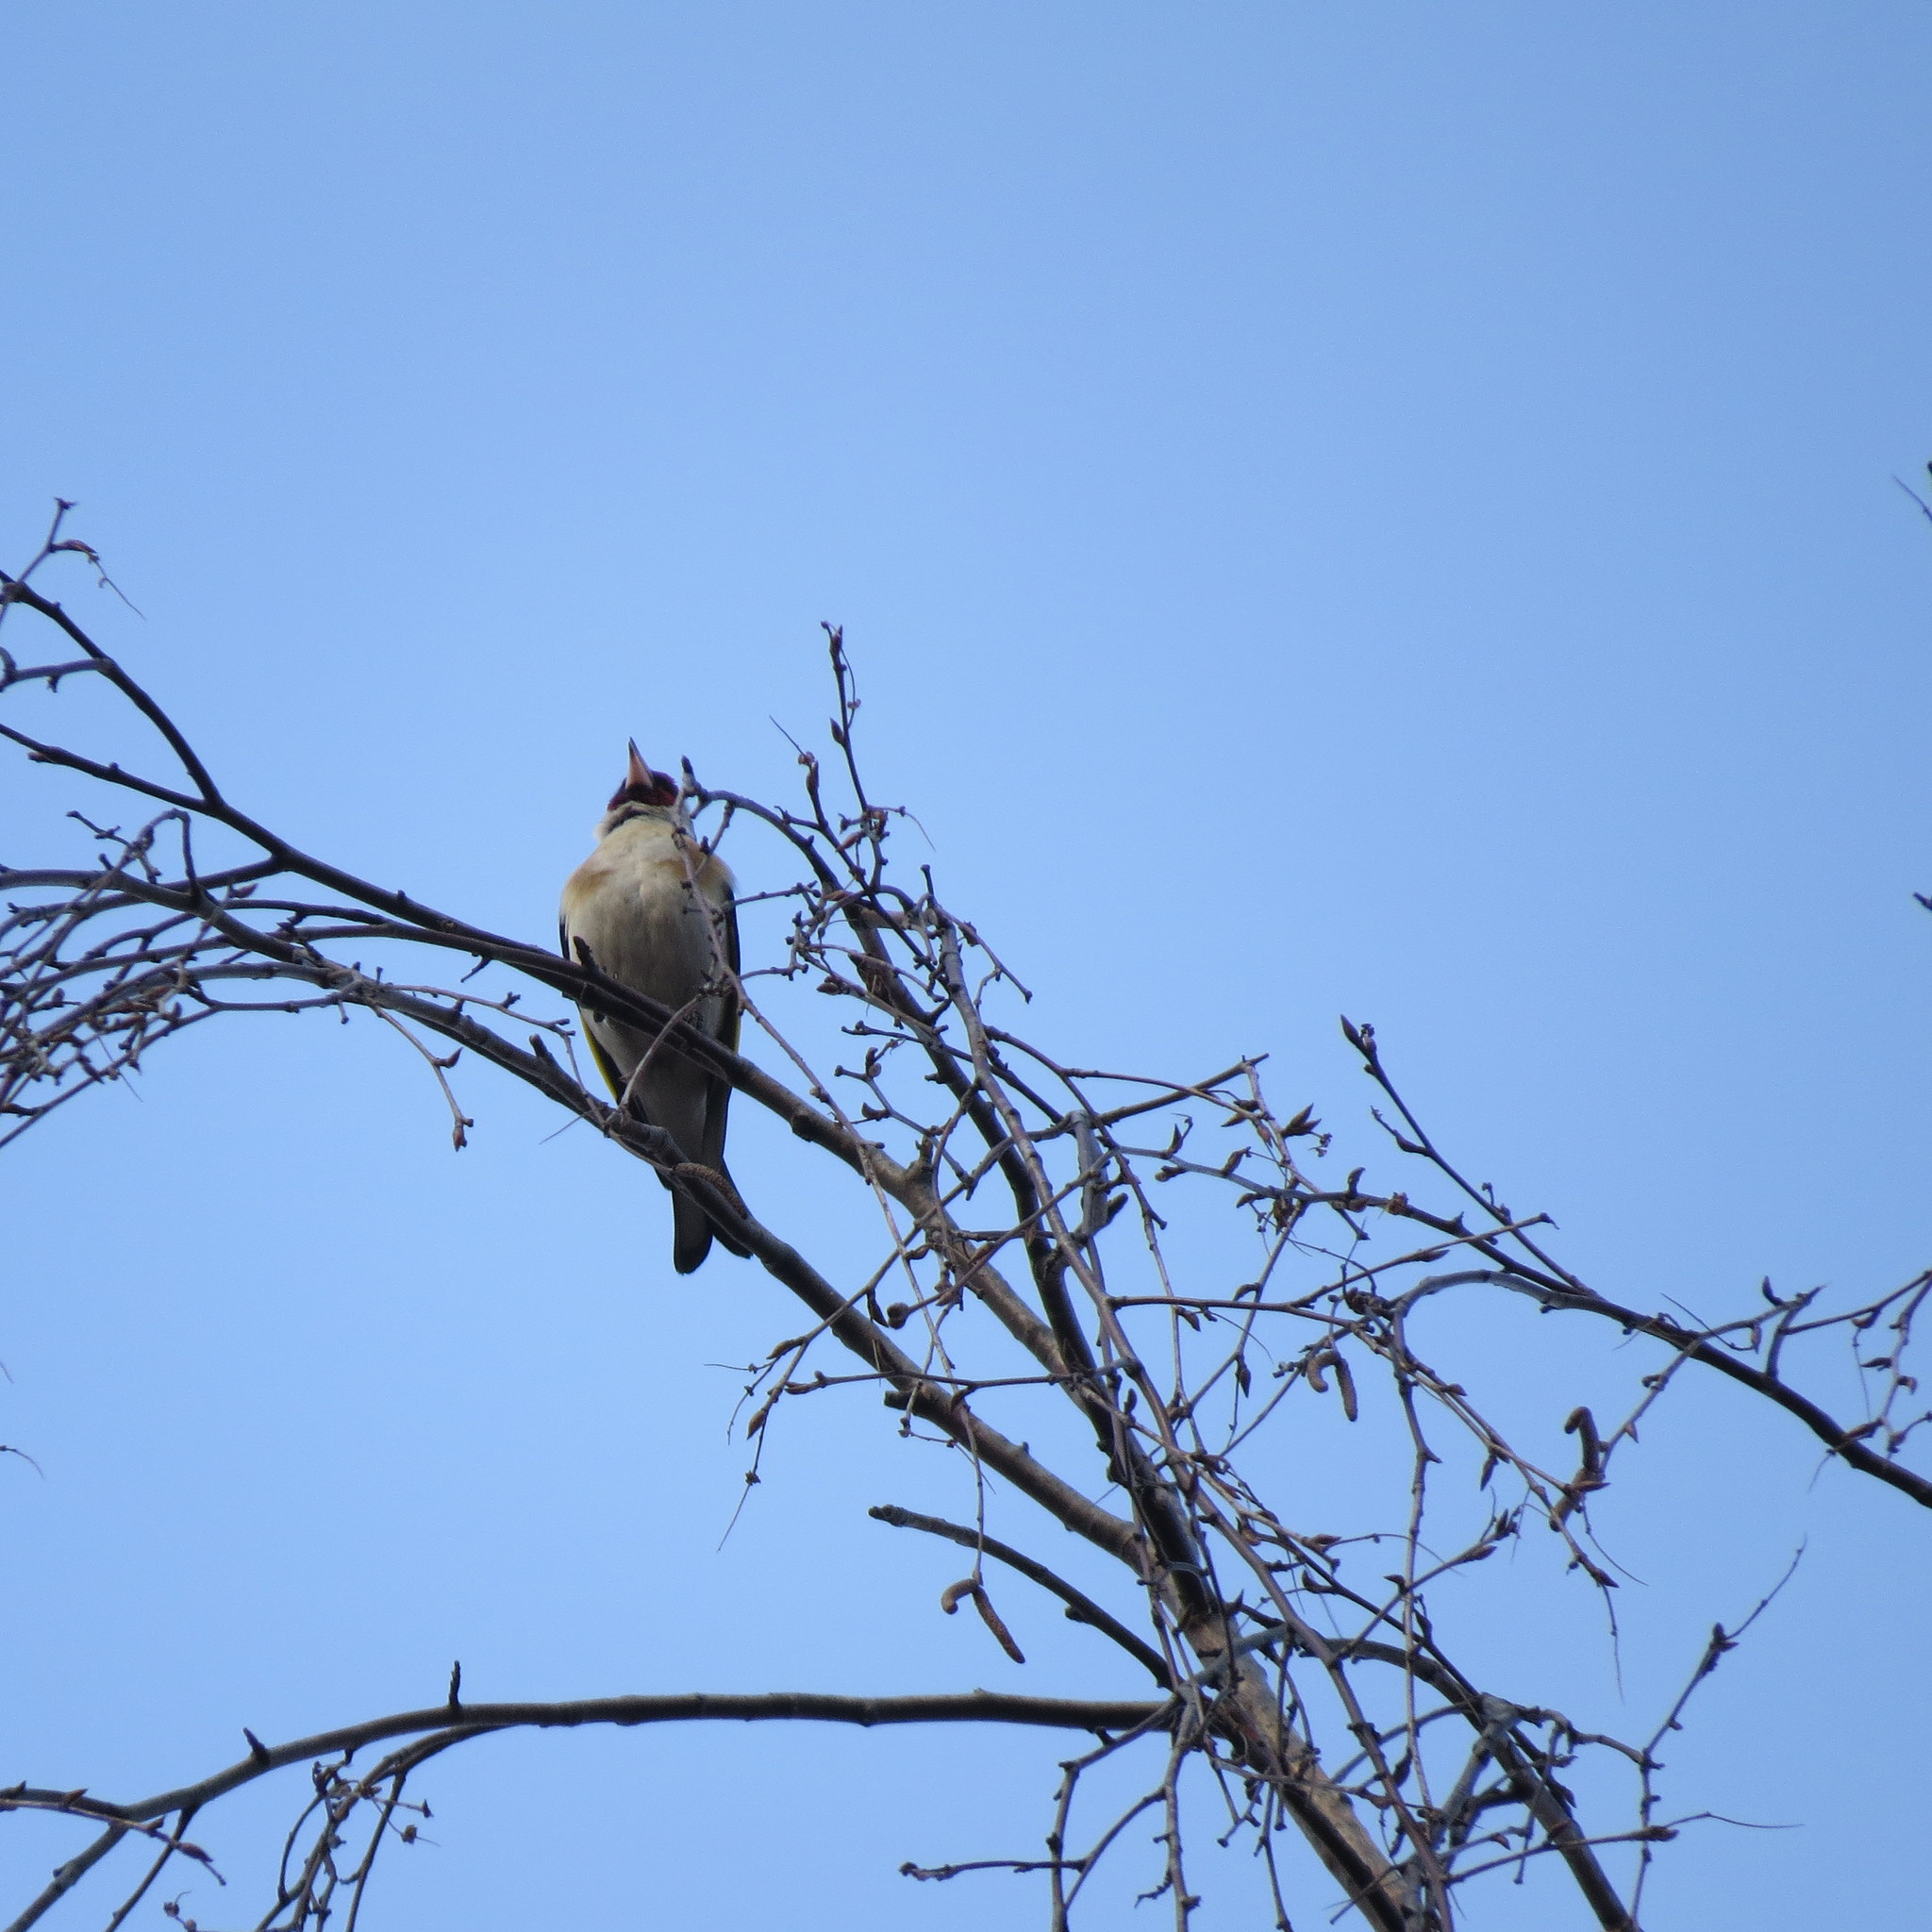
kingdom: Animalia
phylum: Chordata
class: Aves
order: Passeriformes
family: Fringillidae
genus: Carduelis
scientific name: Carduelis carduelis
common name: European goldfinch
